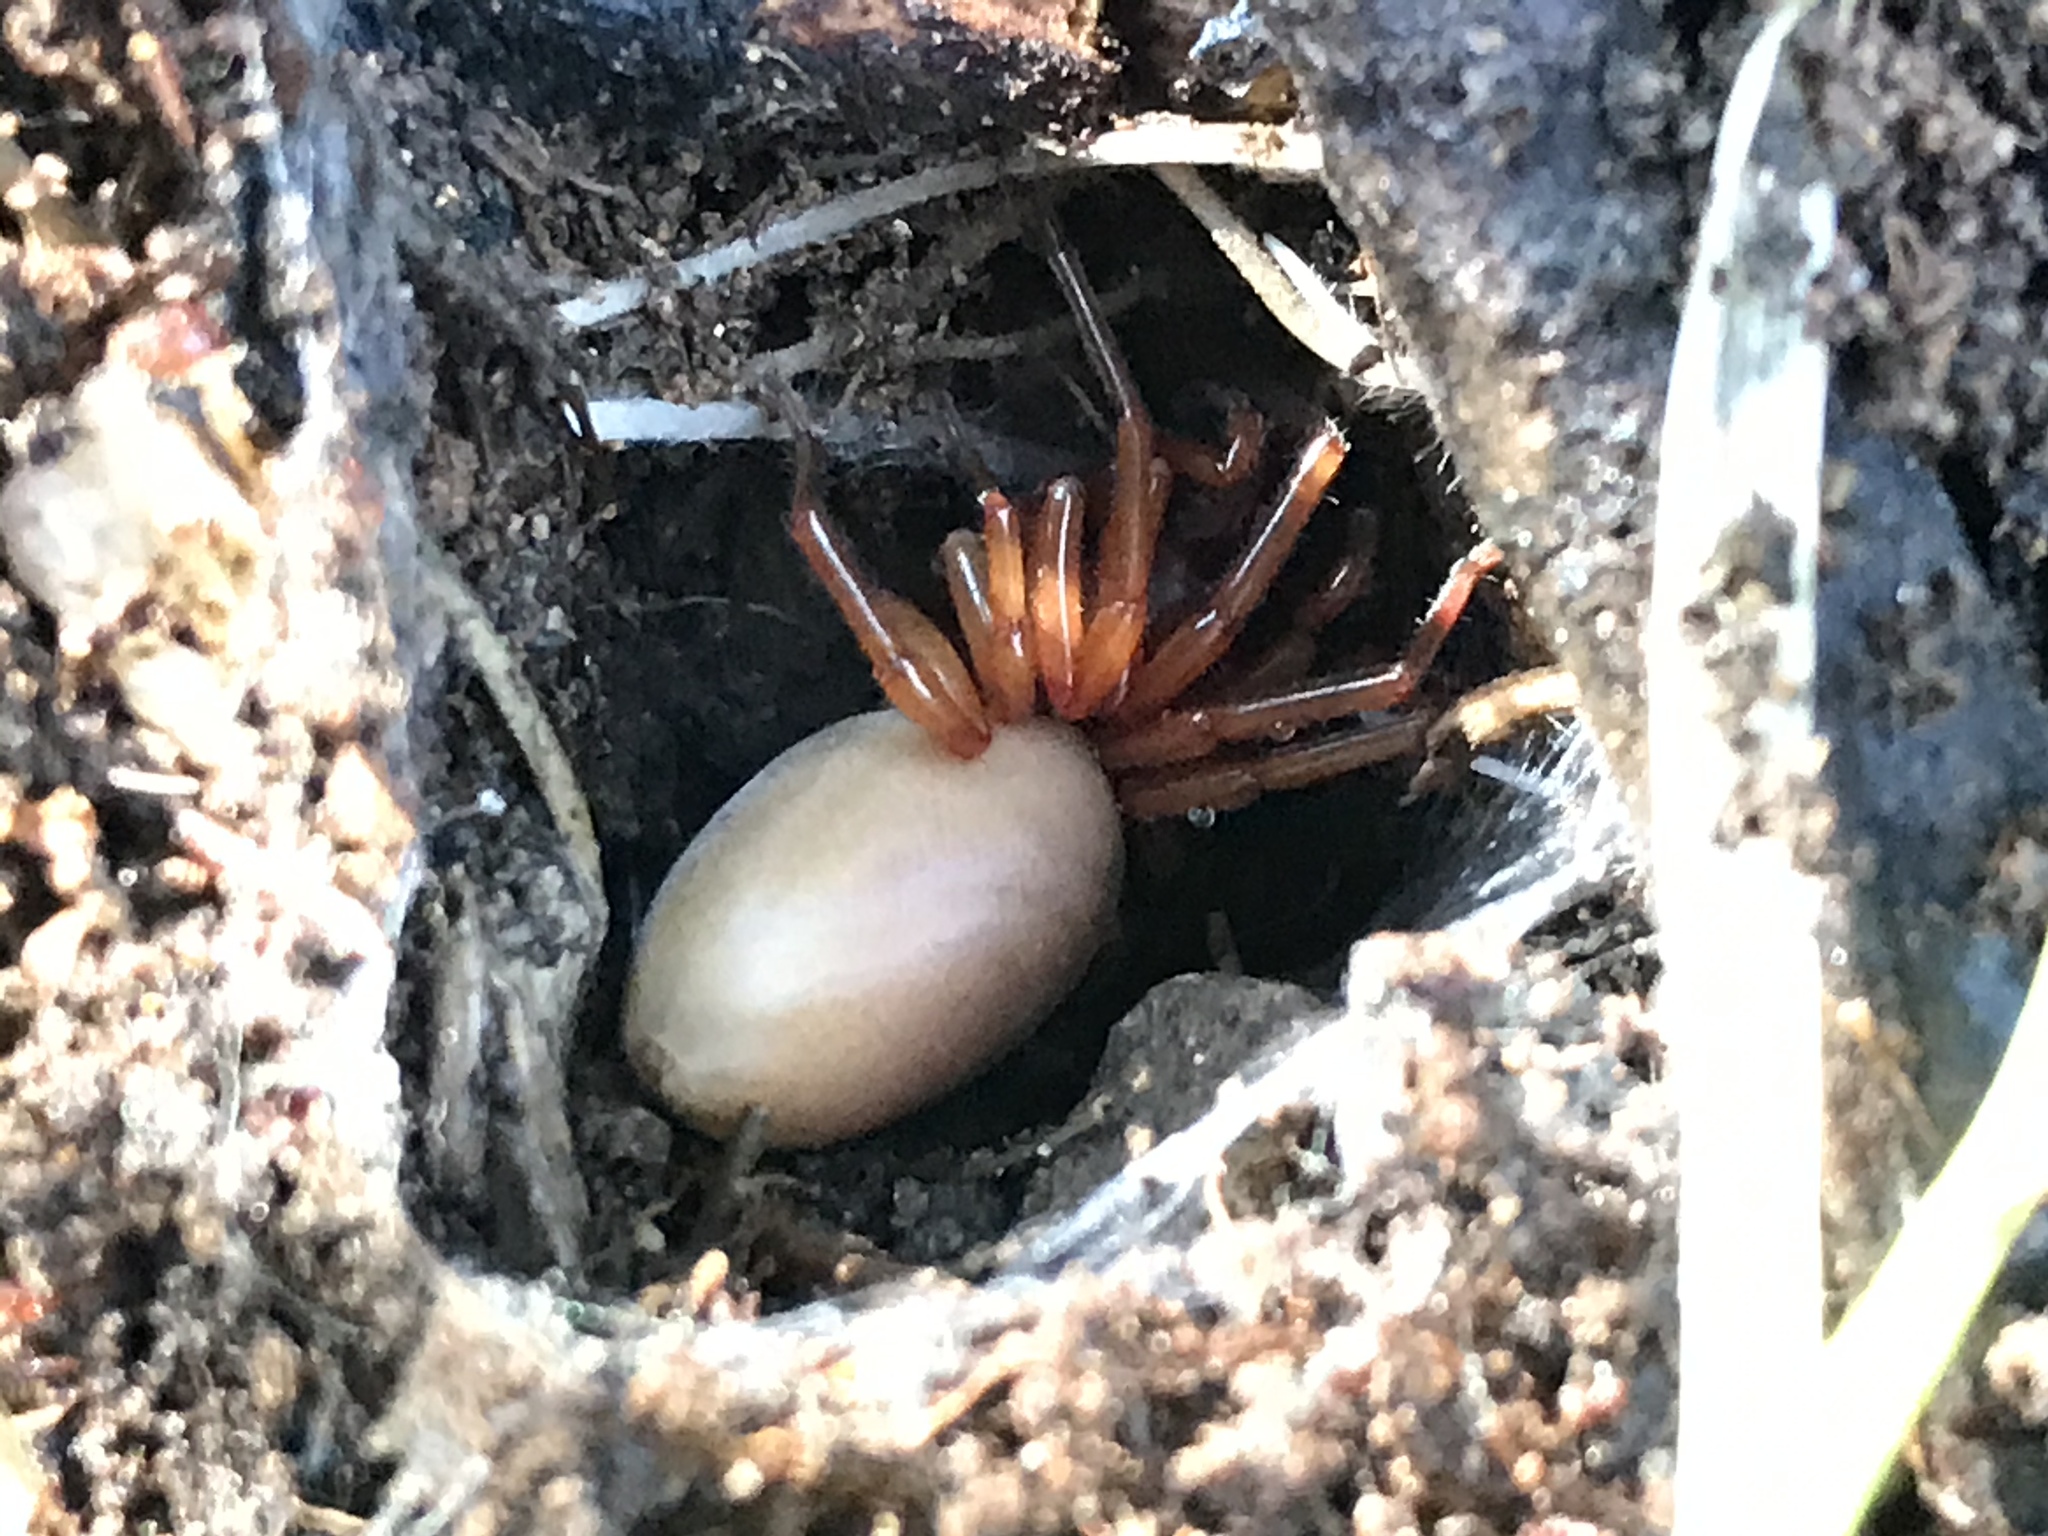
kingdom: Animalia
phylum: Arthropoda
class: Arachnida
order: Araneae
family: Dysderidae
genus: Dysdera
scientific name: Dysdera crocata
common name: Woodlouse spider
